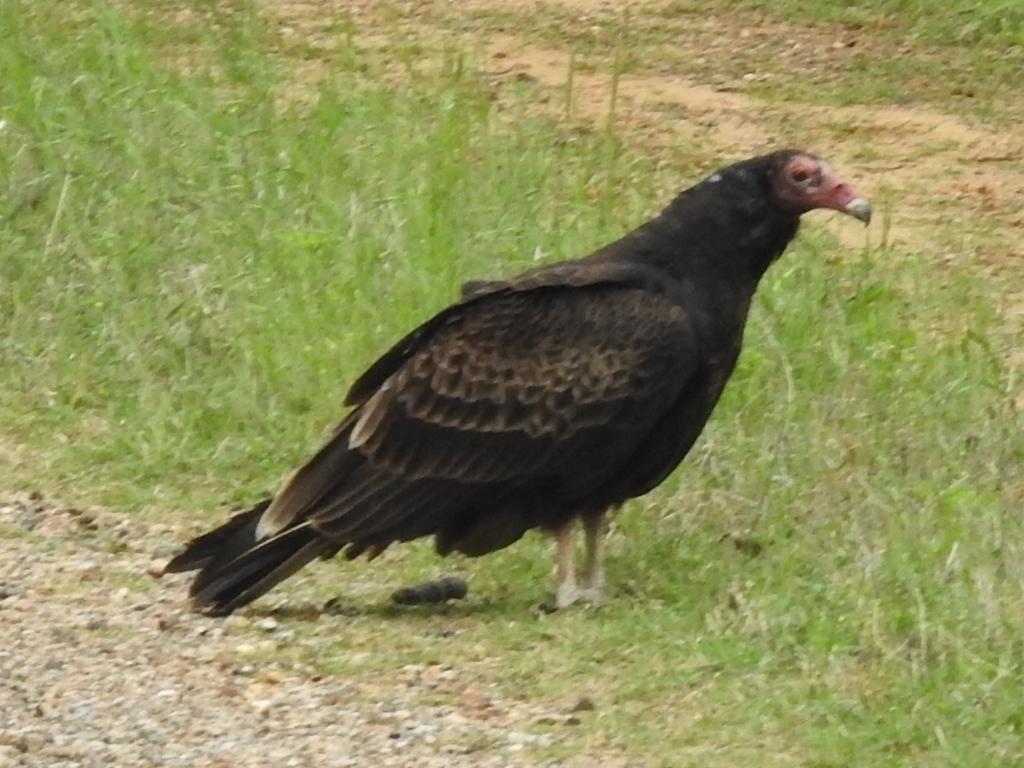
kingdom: Animalia
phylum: Chordata
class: Aves
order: Accipitriformes
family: Cathartidae
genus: Cathartes
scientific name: Cathartes aura
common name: Turkey vulture
